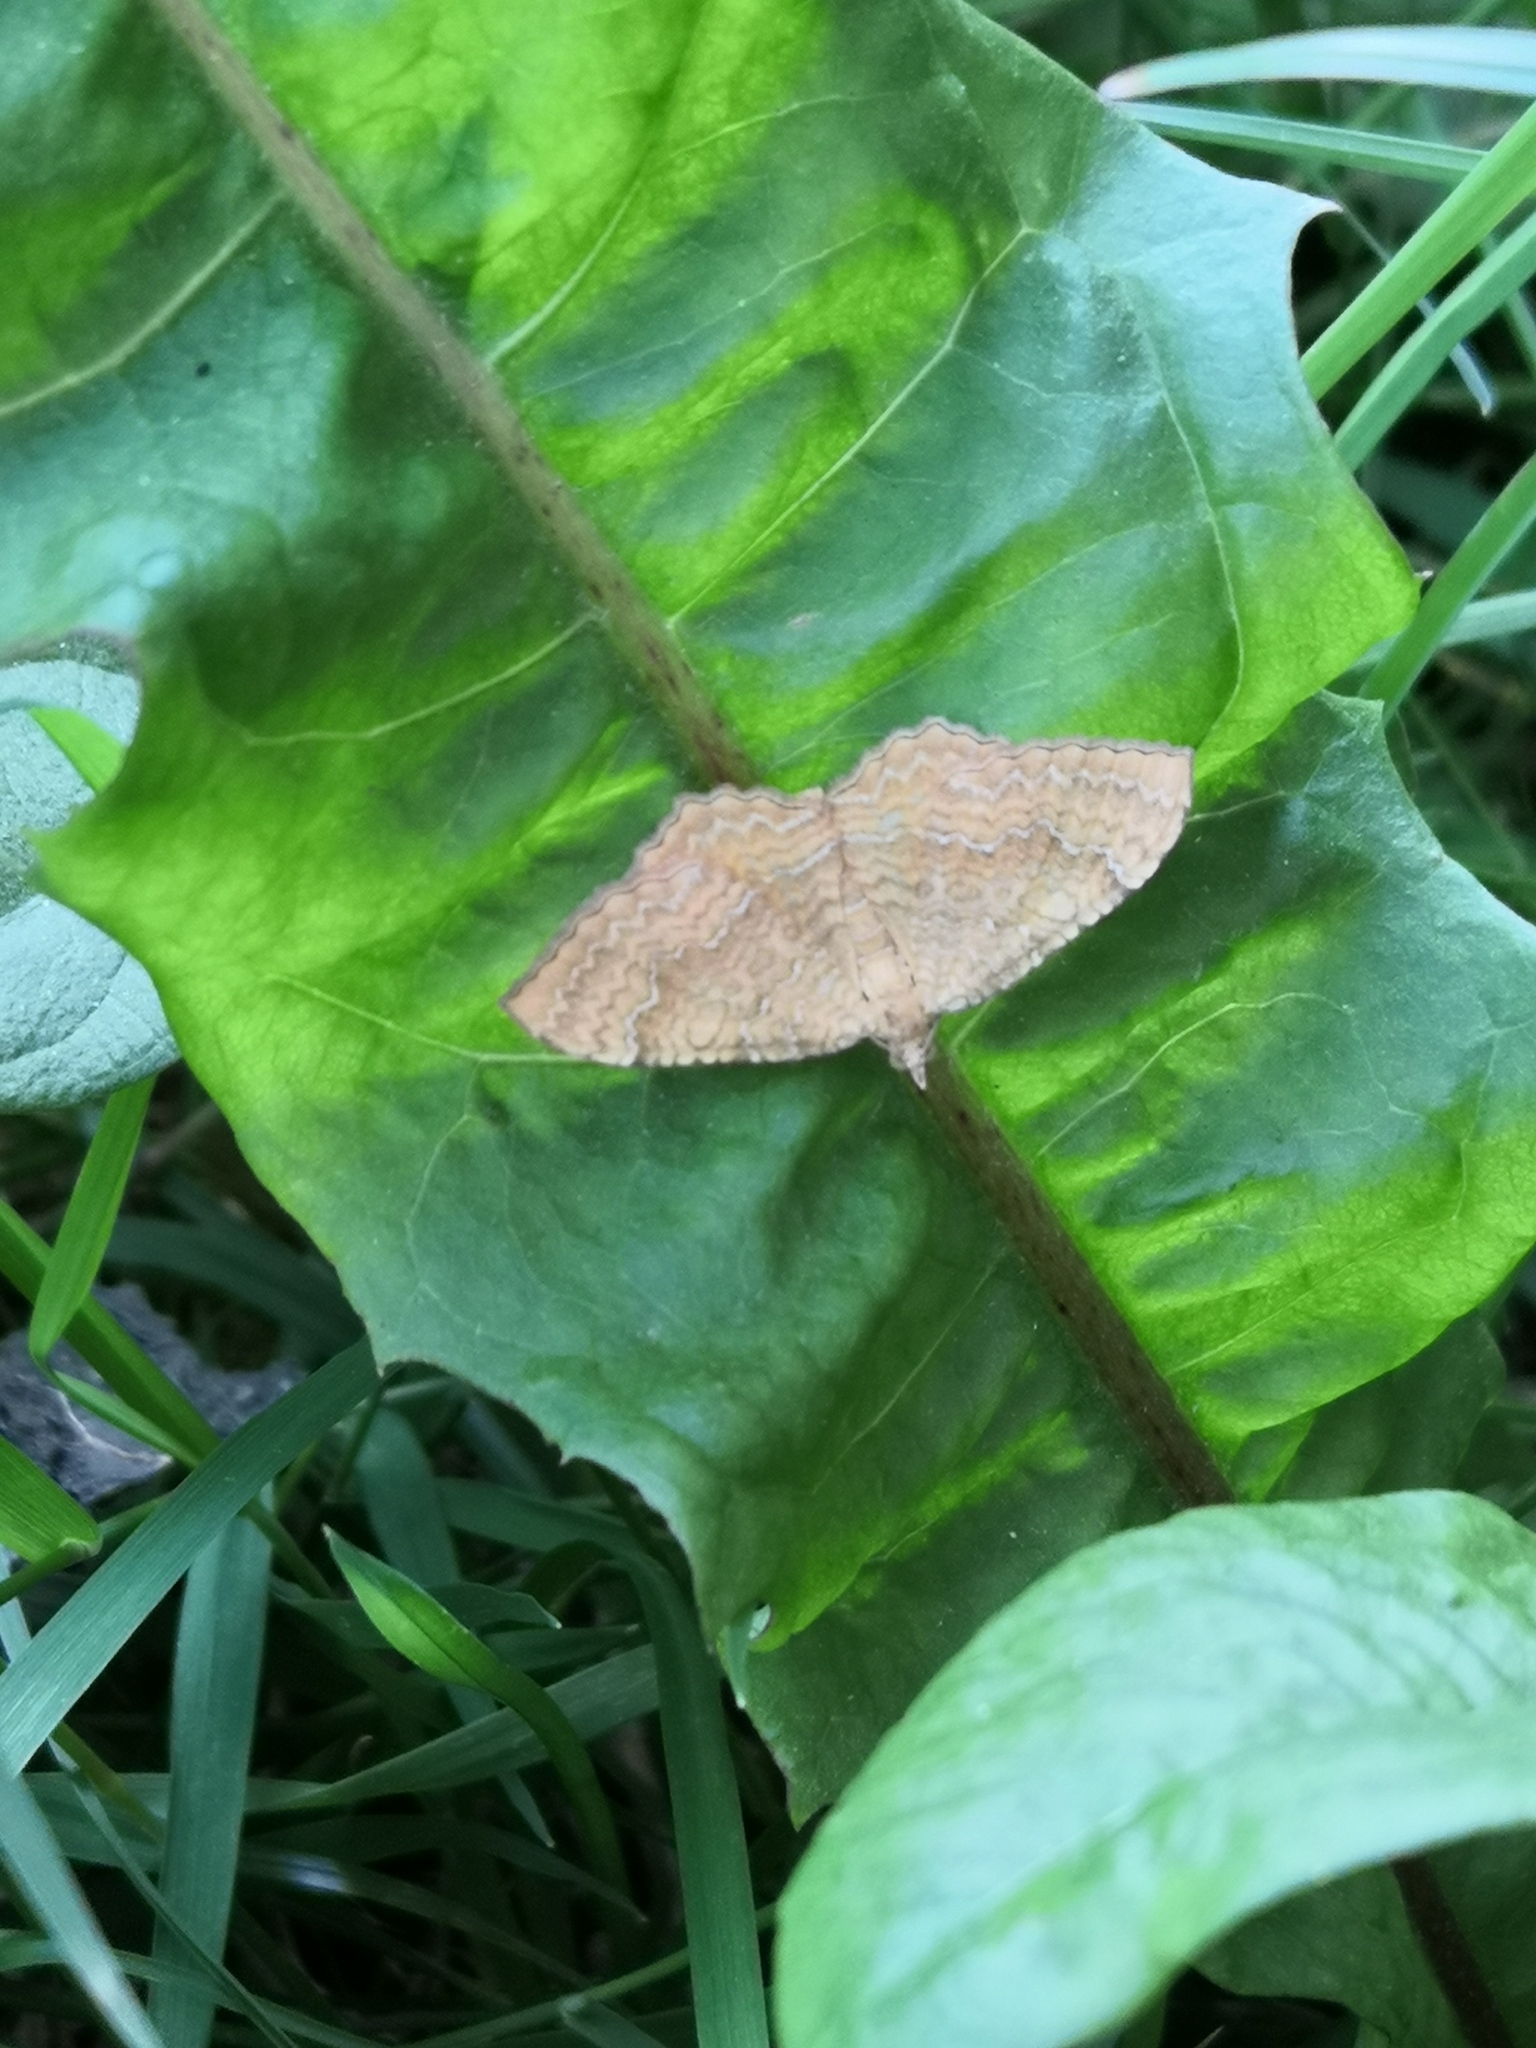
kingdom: Animalia
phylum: Arthropoda
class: Insecta
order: Lepidoptera
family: Geometridae
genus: Camptogramma
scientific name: Camptogramma bilineata
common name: Yellow shell
